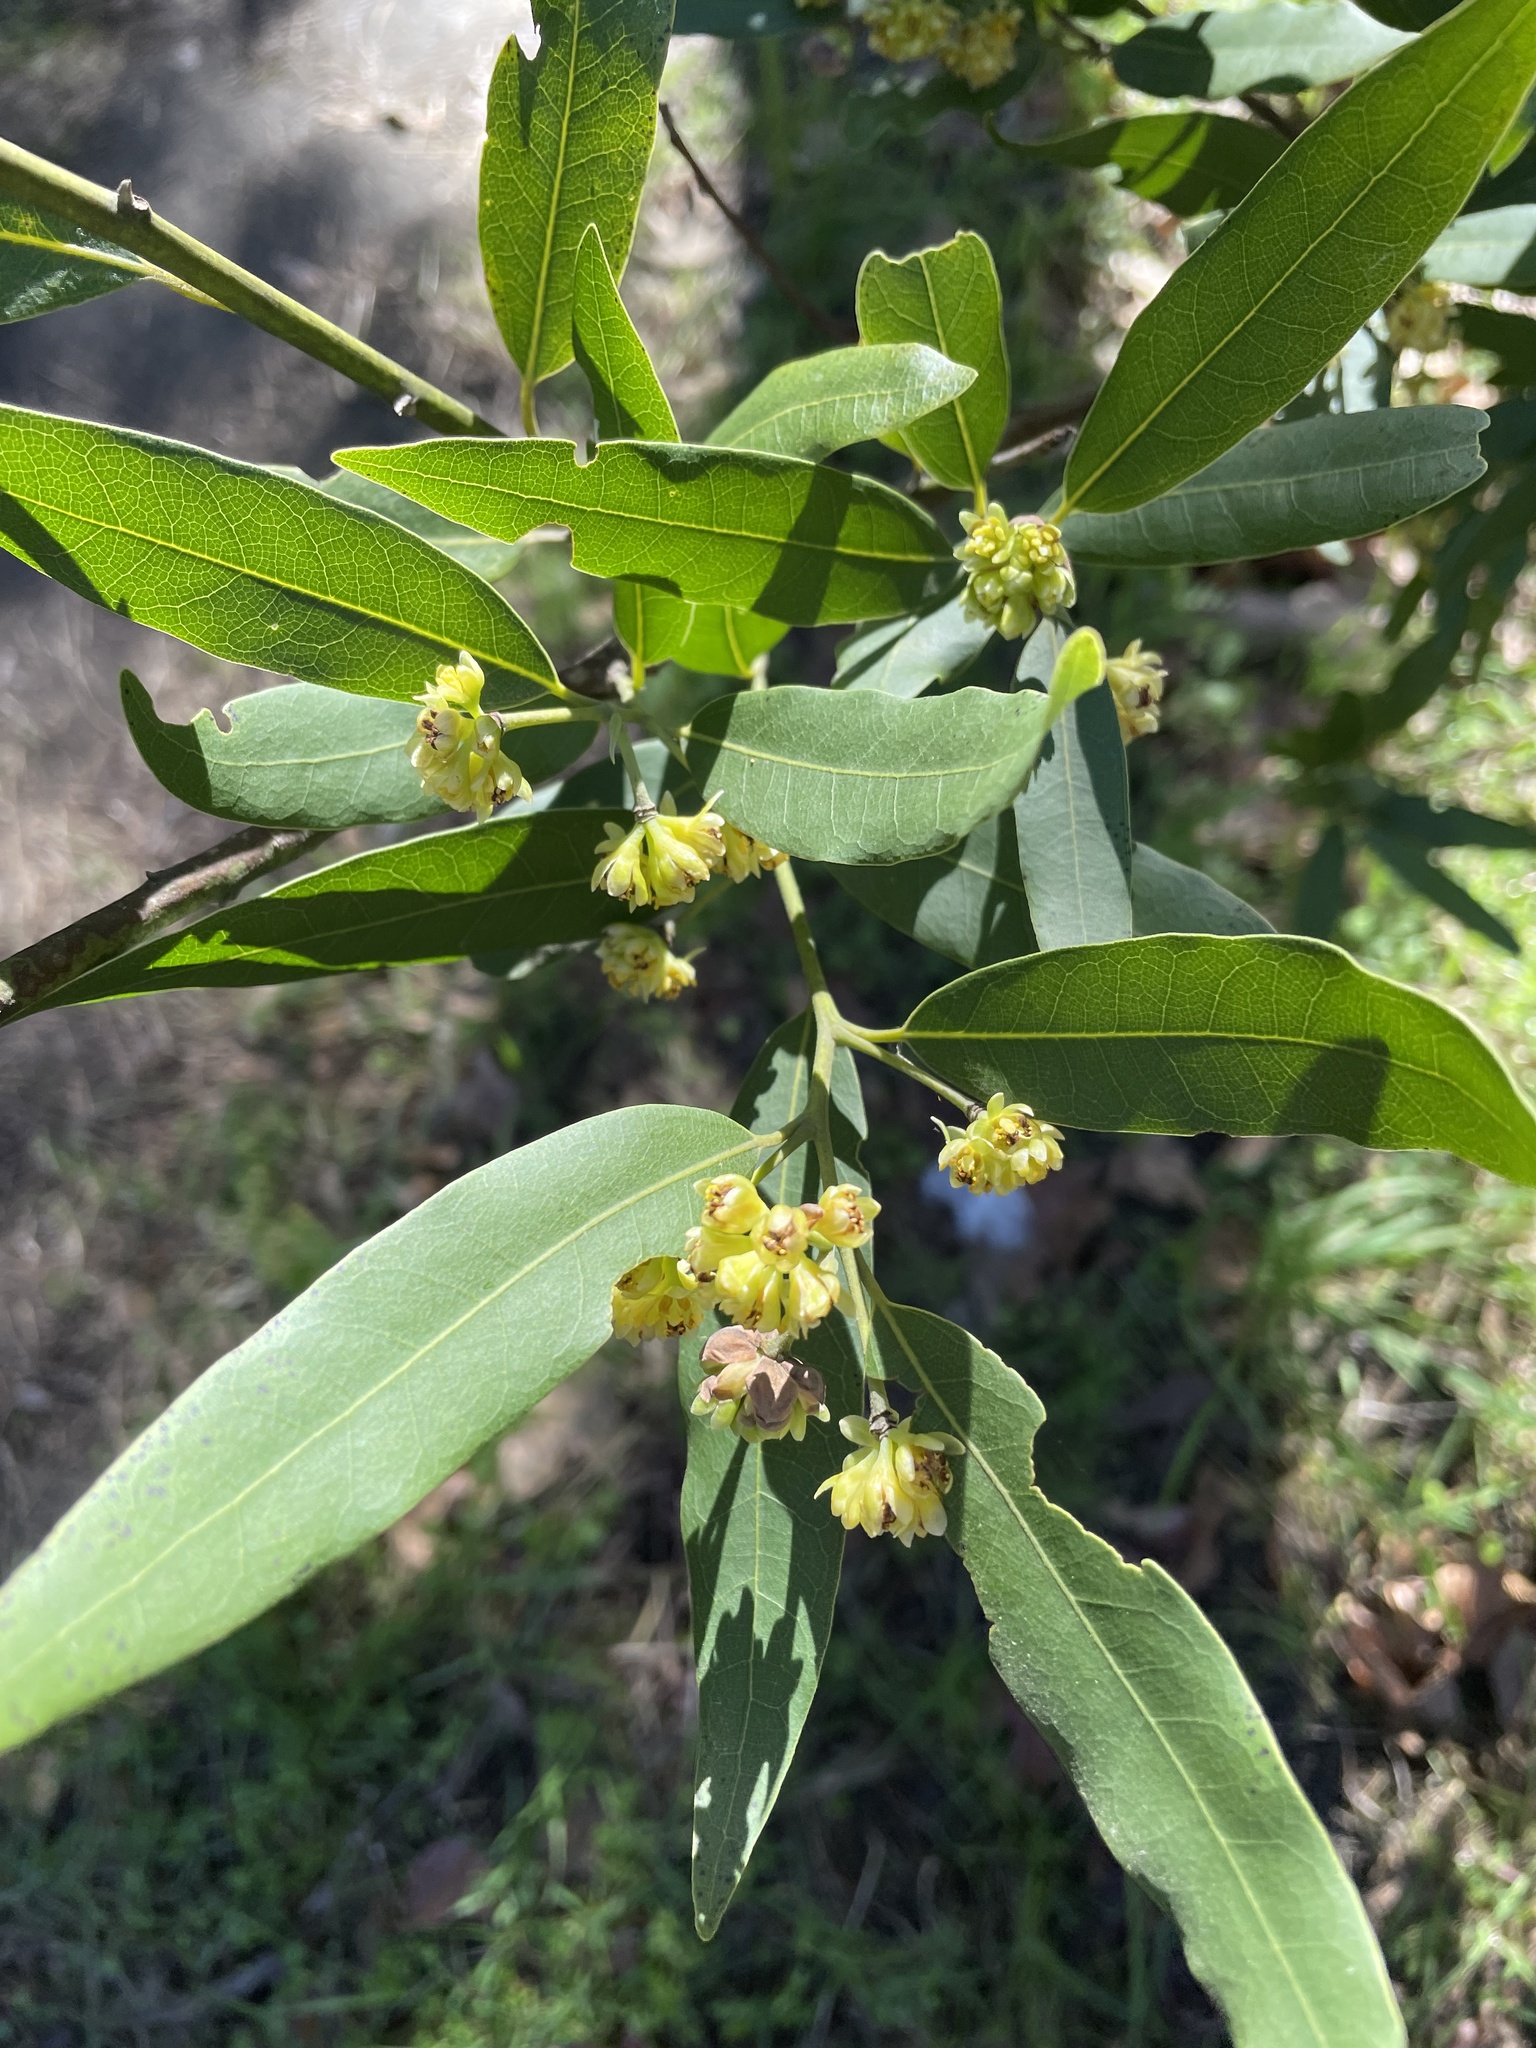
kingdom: Plantae
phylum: Tracheophyta
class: Magnoliopsida
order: Laurales
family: Lauraceae
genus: Umbellularia
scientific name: Umbellularia californica
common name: California bay
